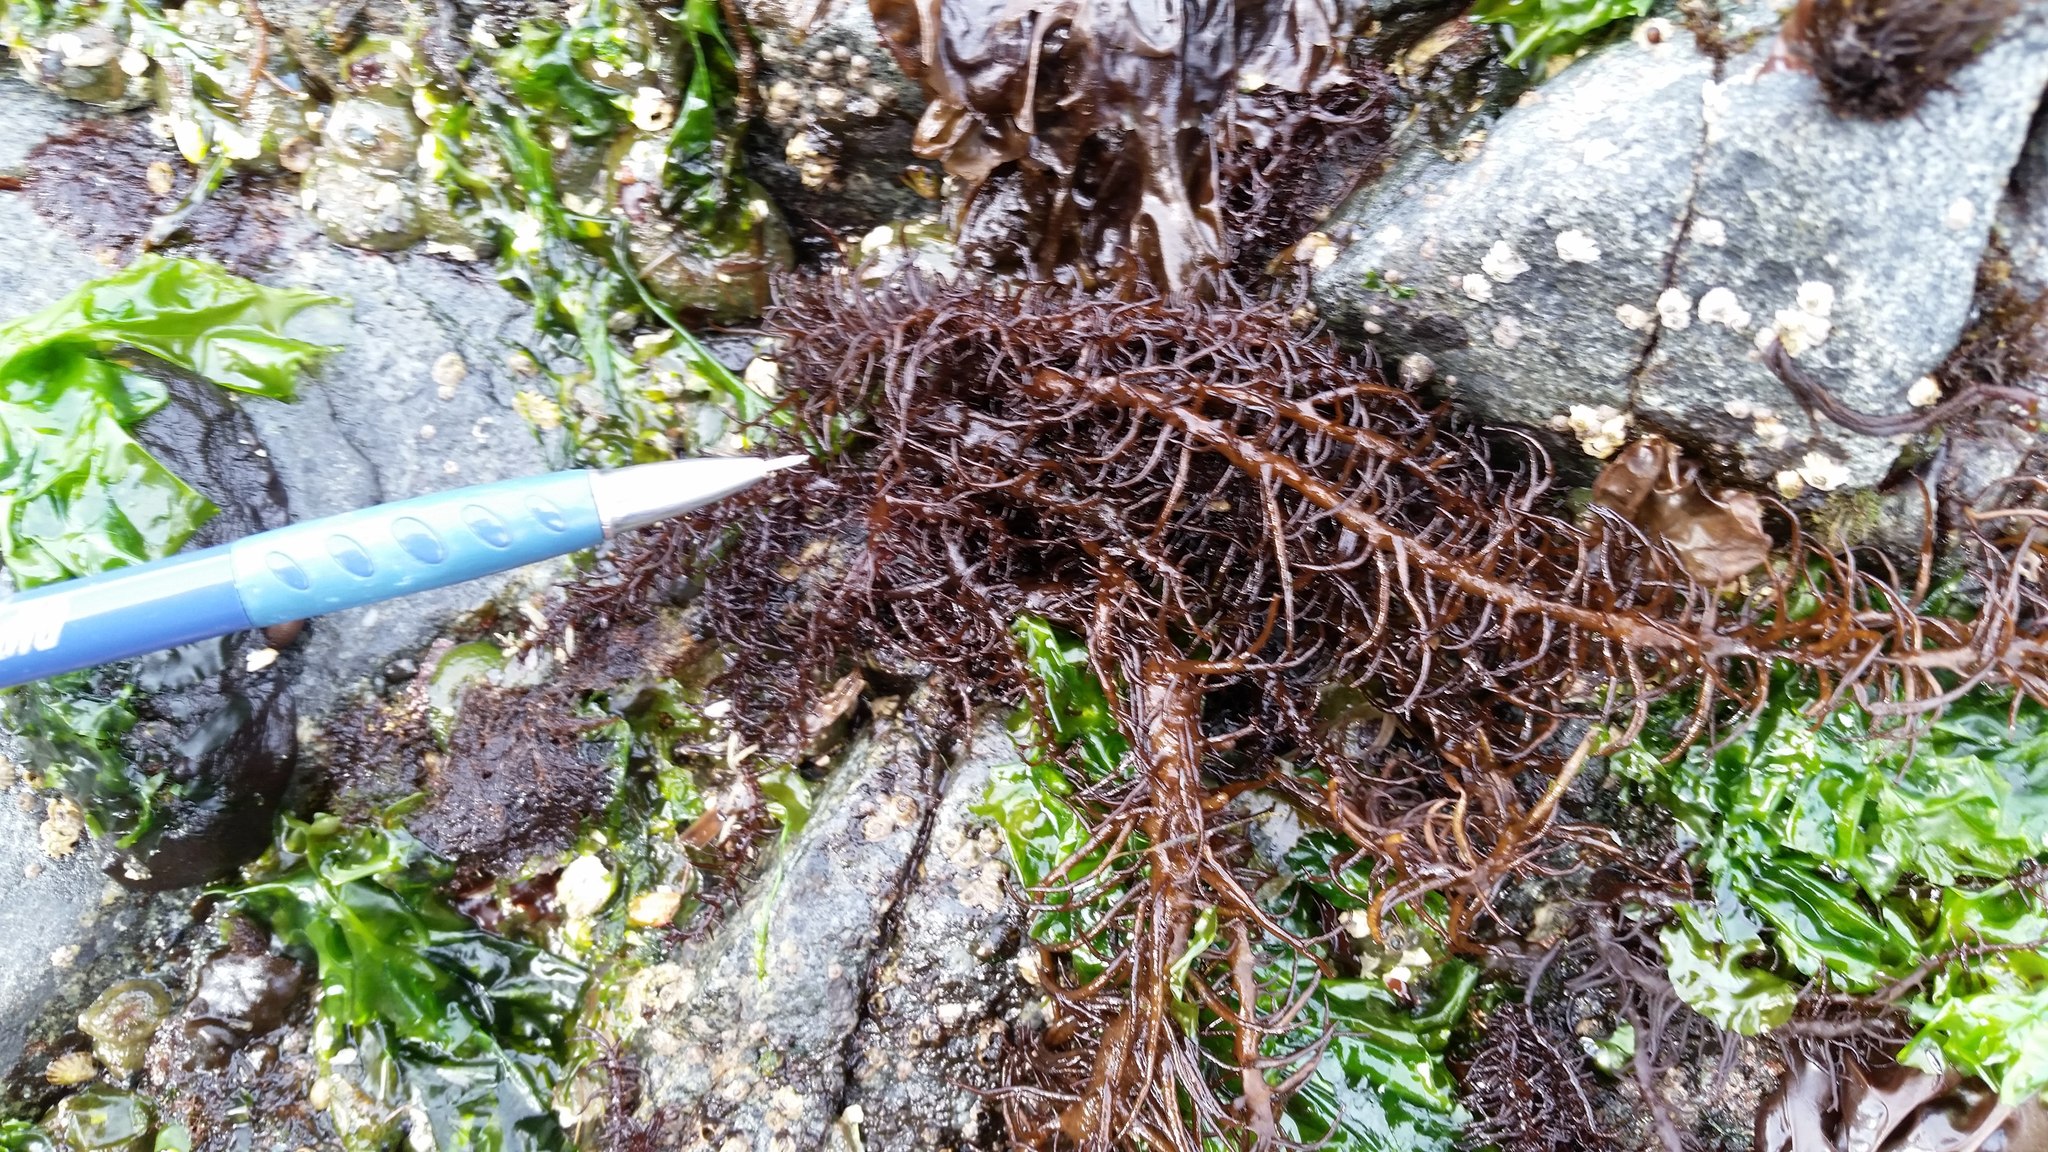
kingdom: Plantae
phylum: Rhodophyta
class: Florideophyceae
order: Nemaliales
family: Liagoraceae
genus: Cumagloia
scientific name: Cumagloia andersonii
